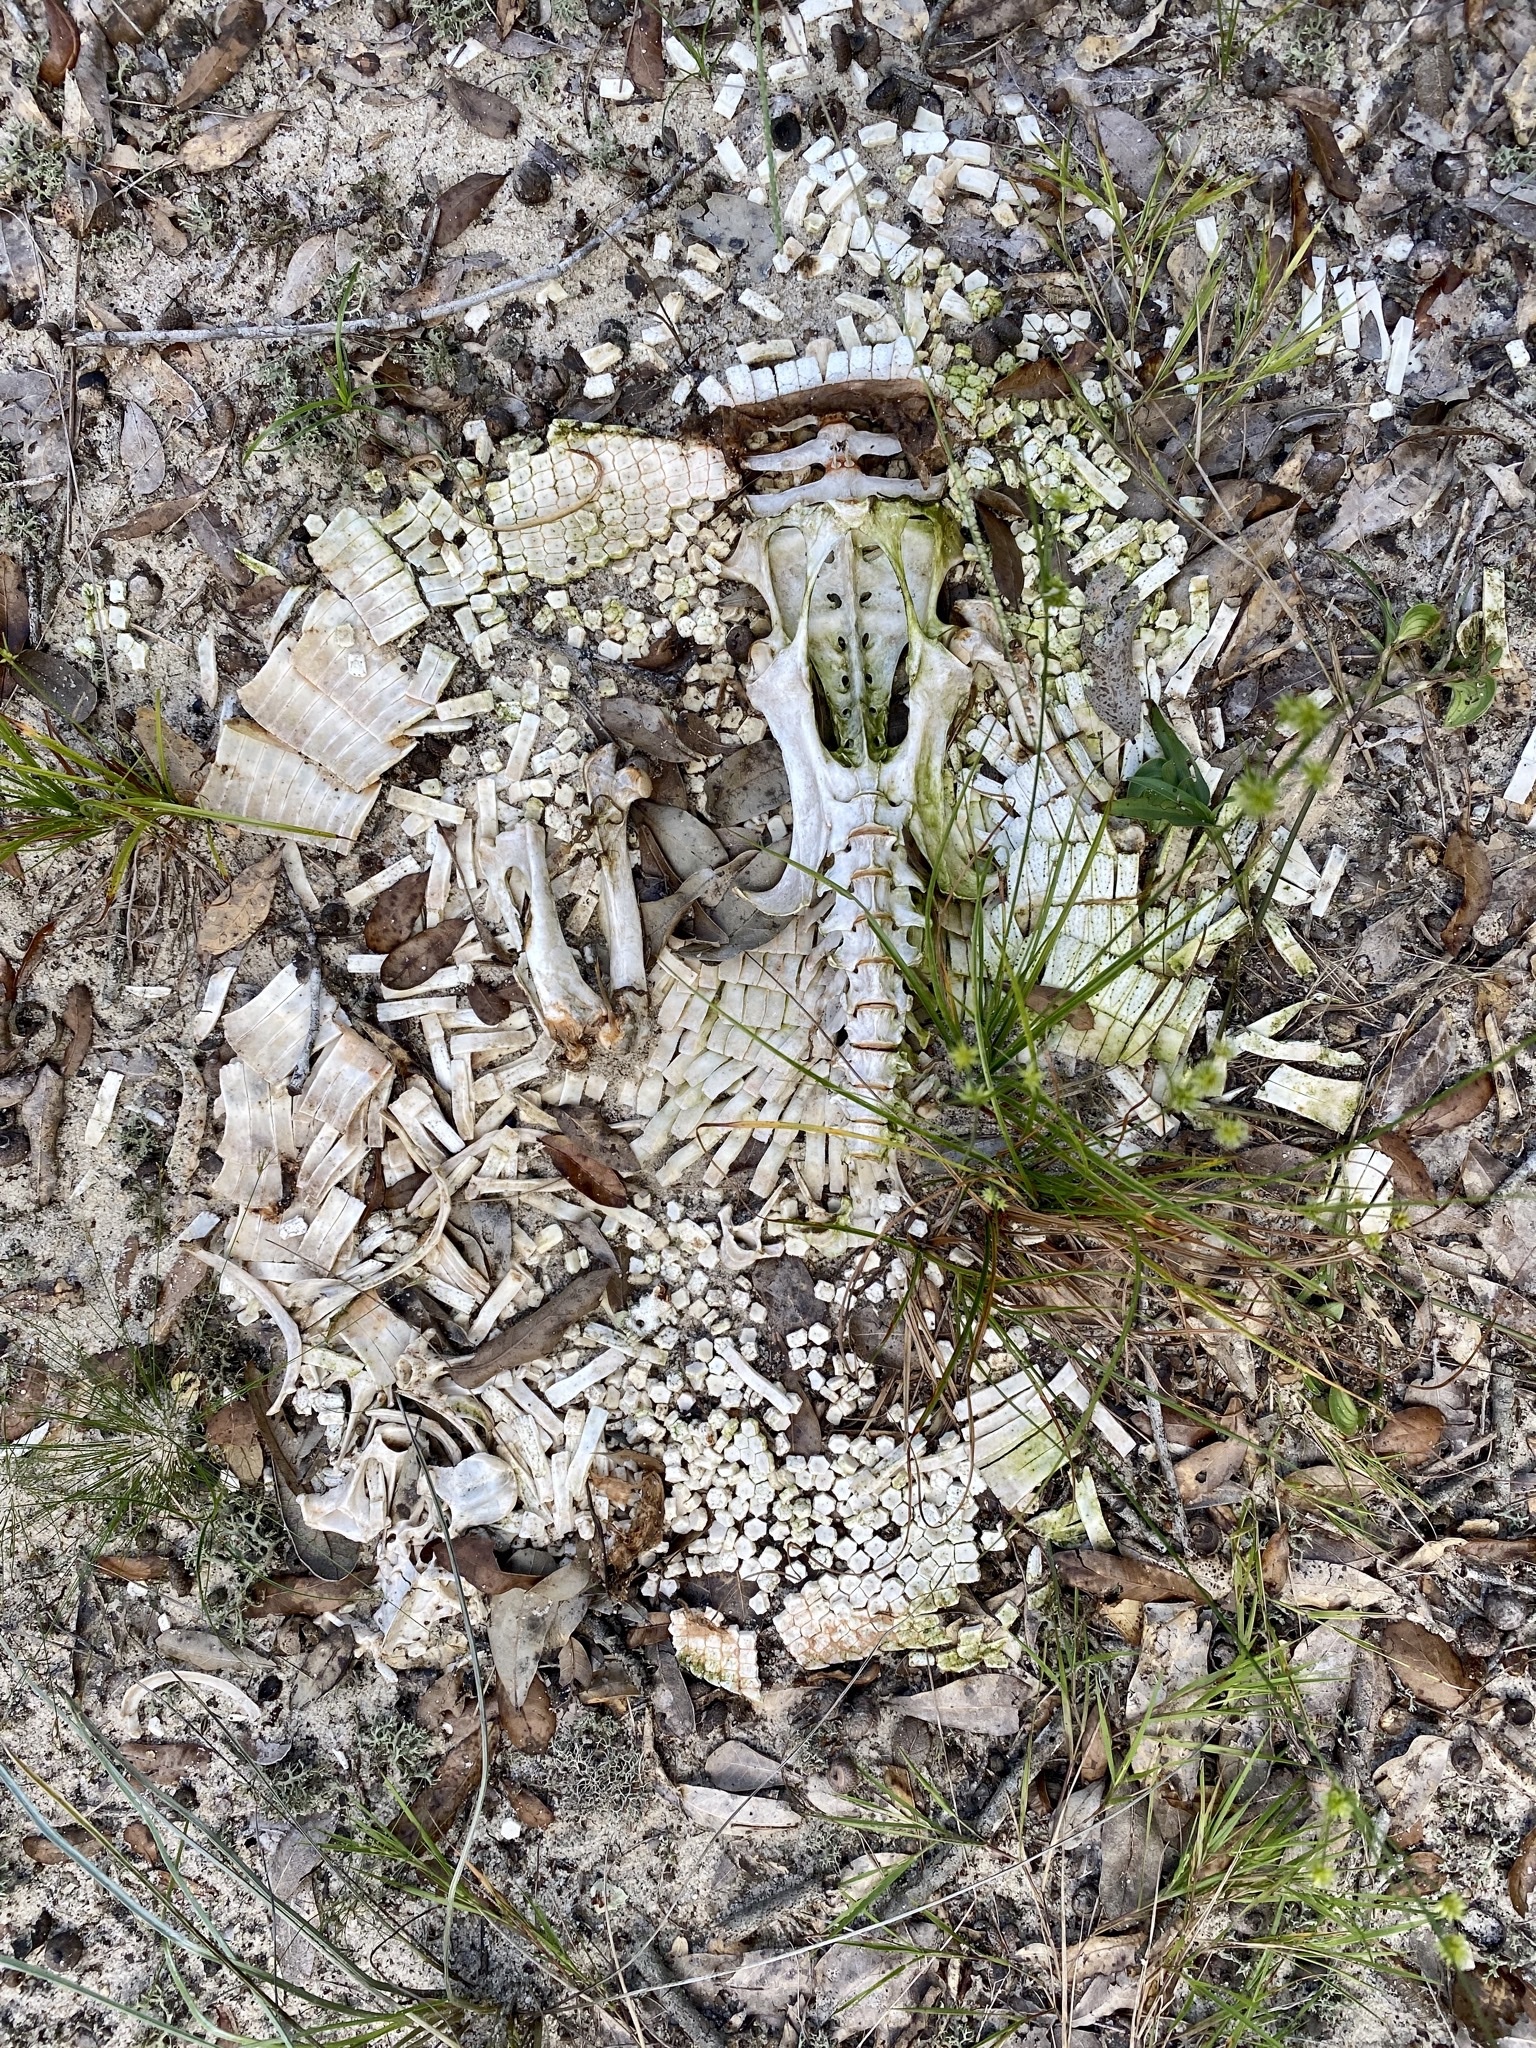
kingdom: Animalia
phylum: Chordata
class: Mammalia
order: Cingulata
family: Dasypodidae
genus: Dasypus
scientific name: Dasypus novemcinctus
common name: Nine-banded armadillo
